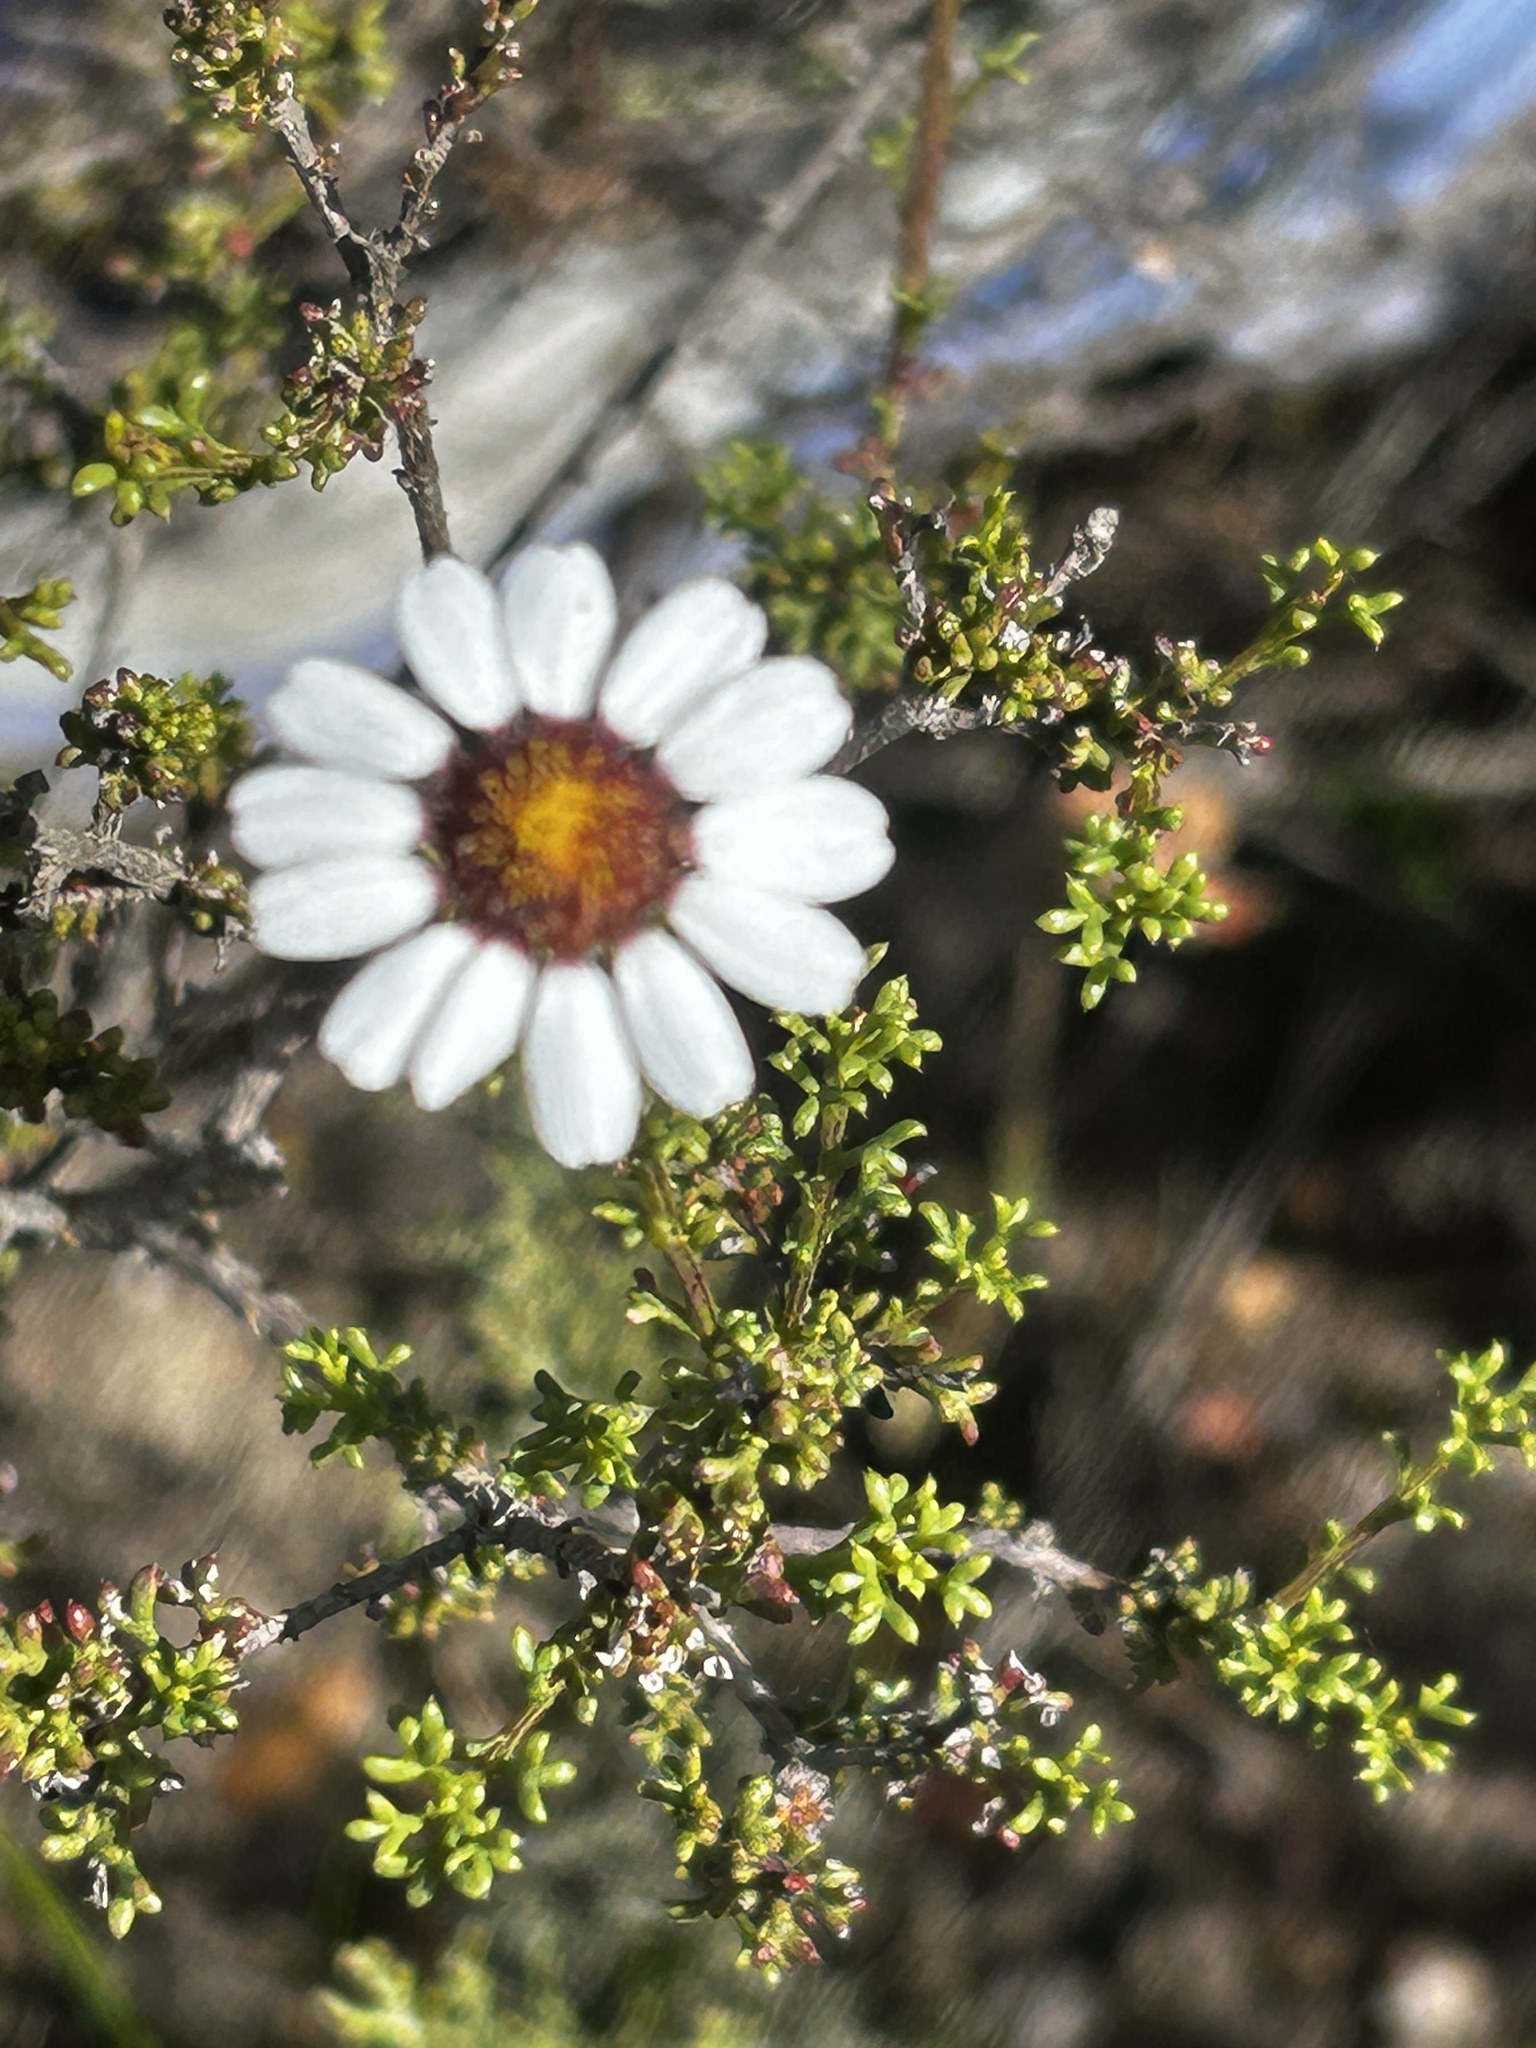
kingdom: Plantae
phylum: Tracheophyta
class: Magnoliopsida
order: Asterales
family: Asteraceae
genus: Cymbopappus
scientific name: Cymbopappus adenosolen
